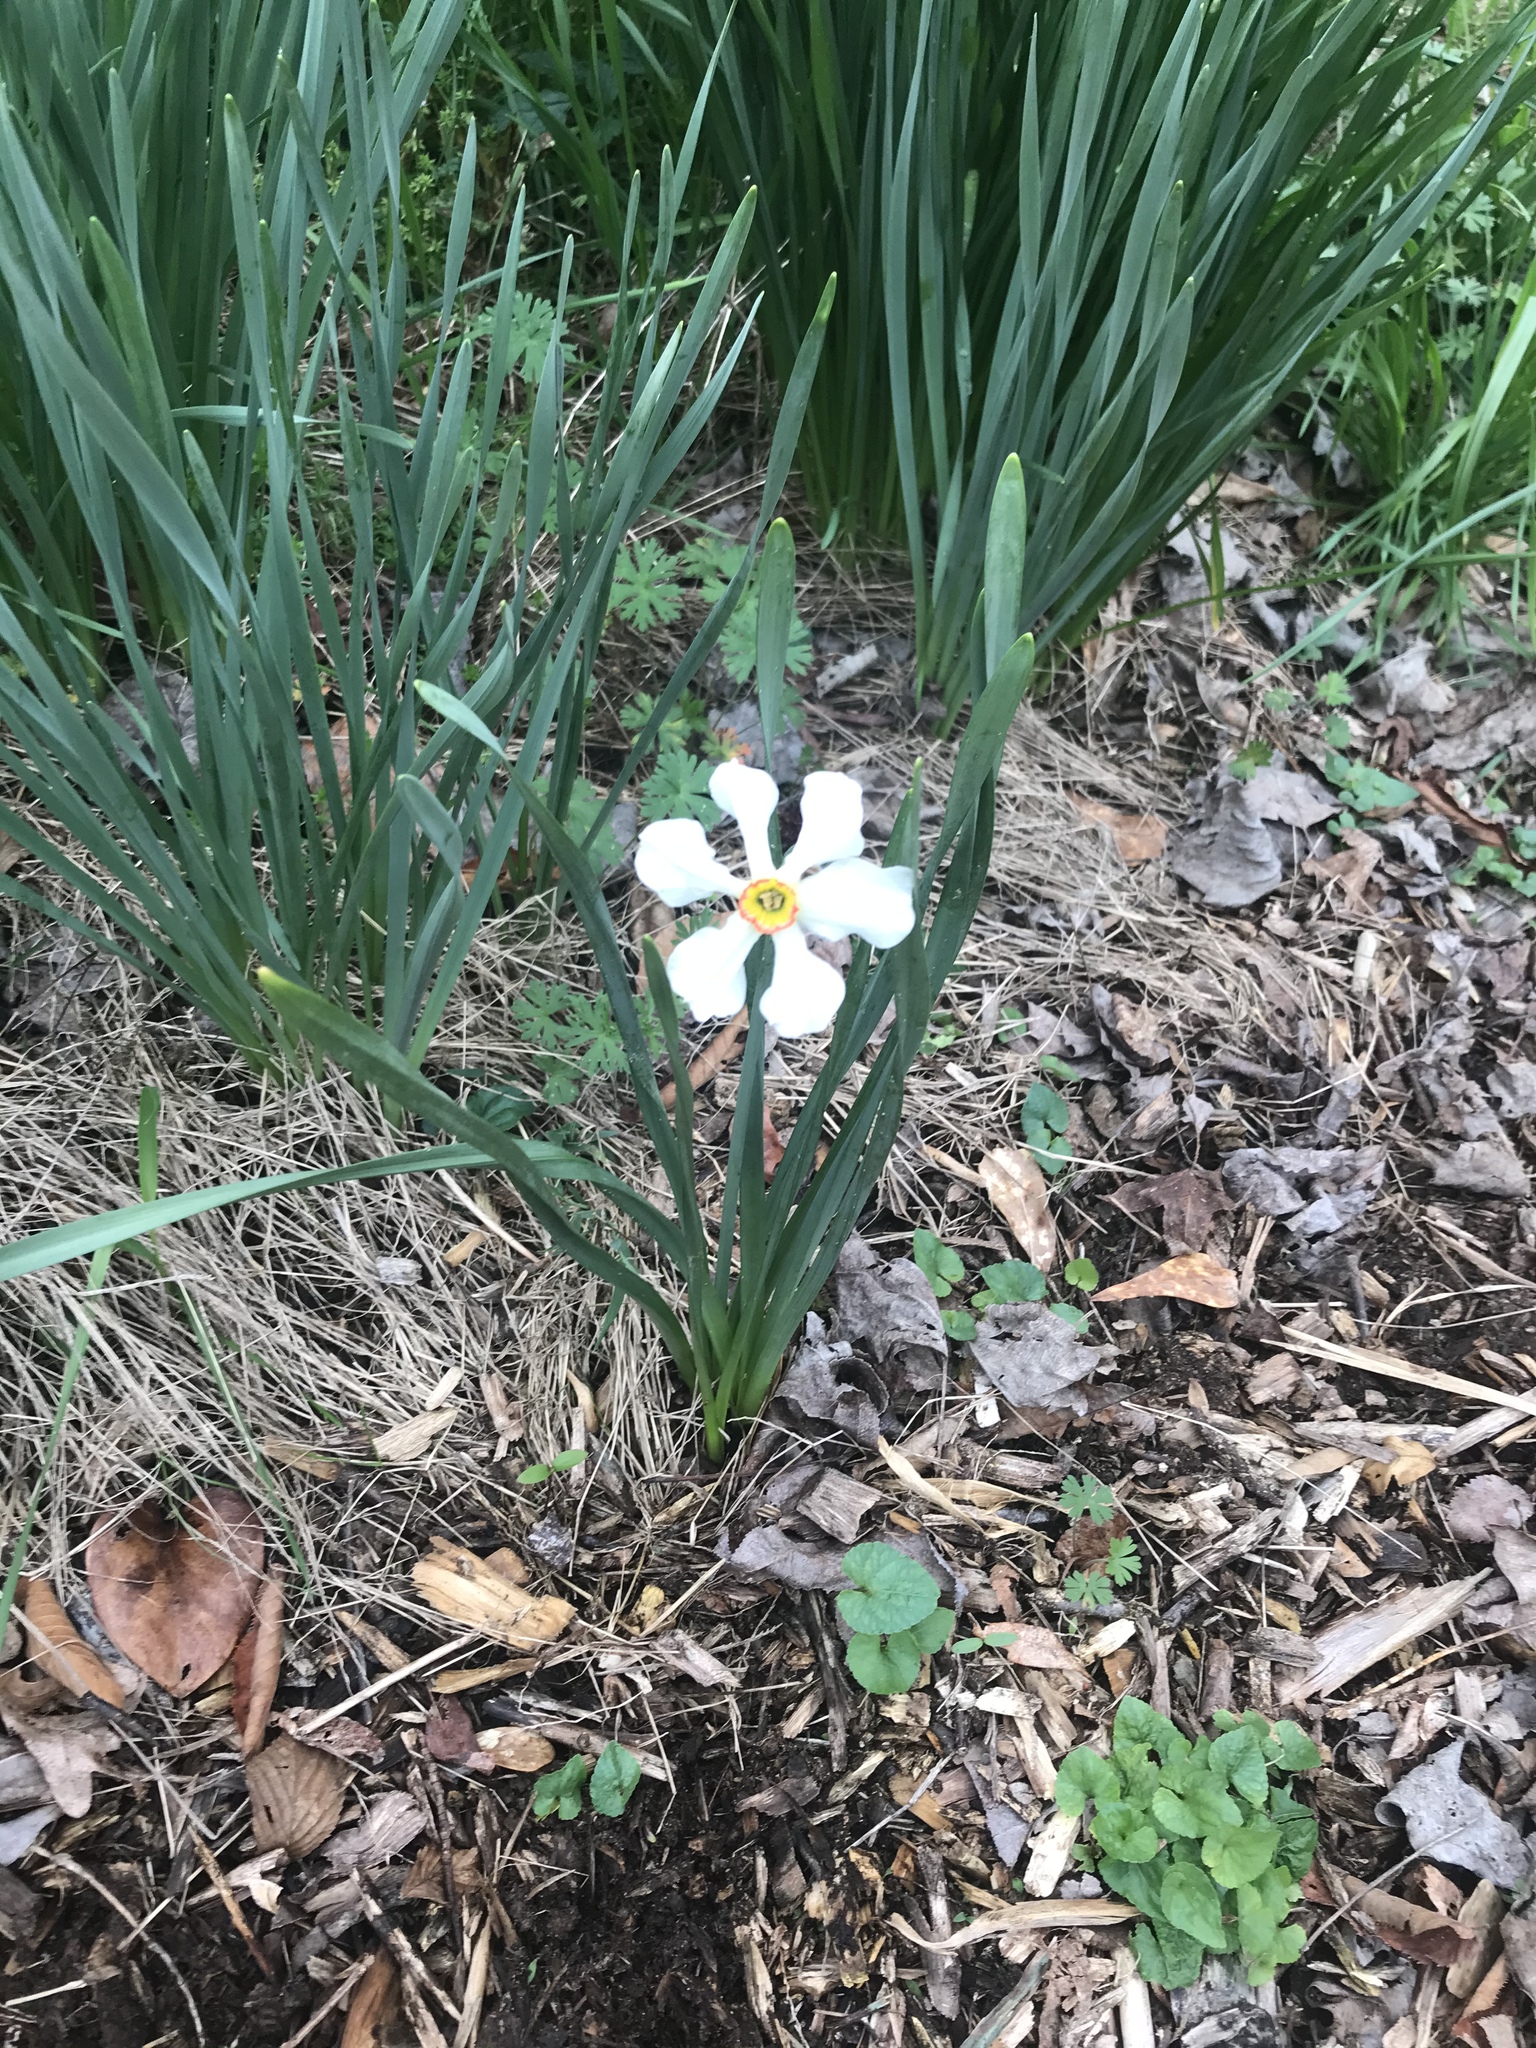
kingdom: Plantae
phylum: Tracheophyta
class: Liliopsida
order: Asparagales
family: Amaryllidaceae
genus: Narcissus
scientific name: Narcissus poeticus
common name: Pheasant's-eye daffodil
